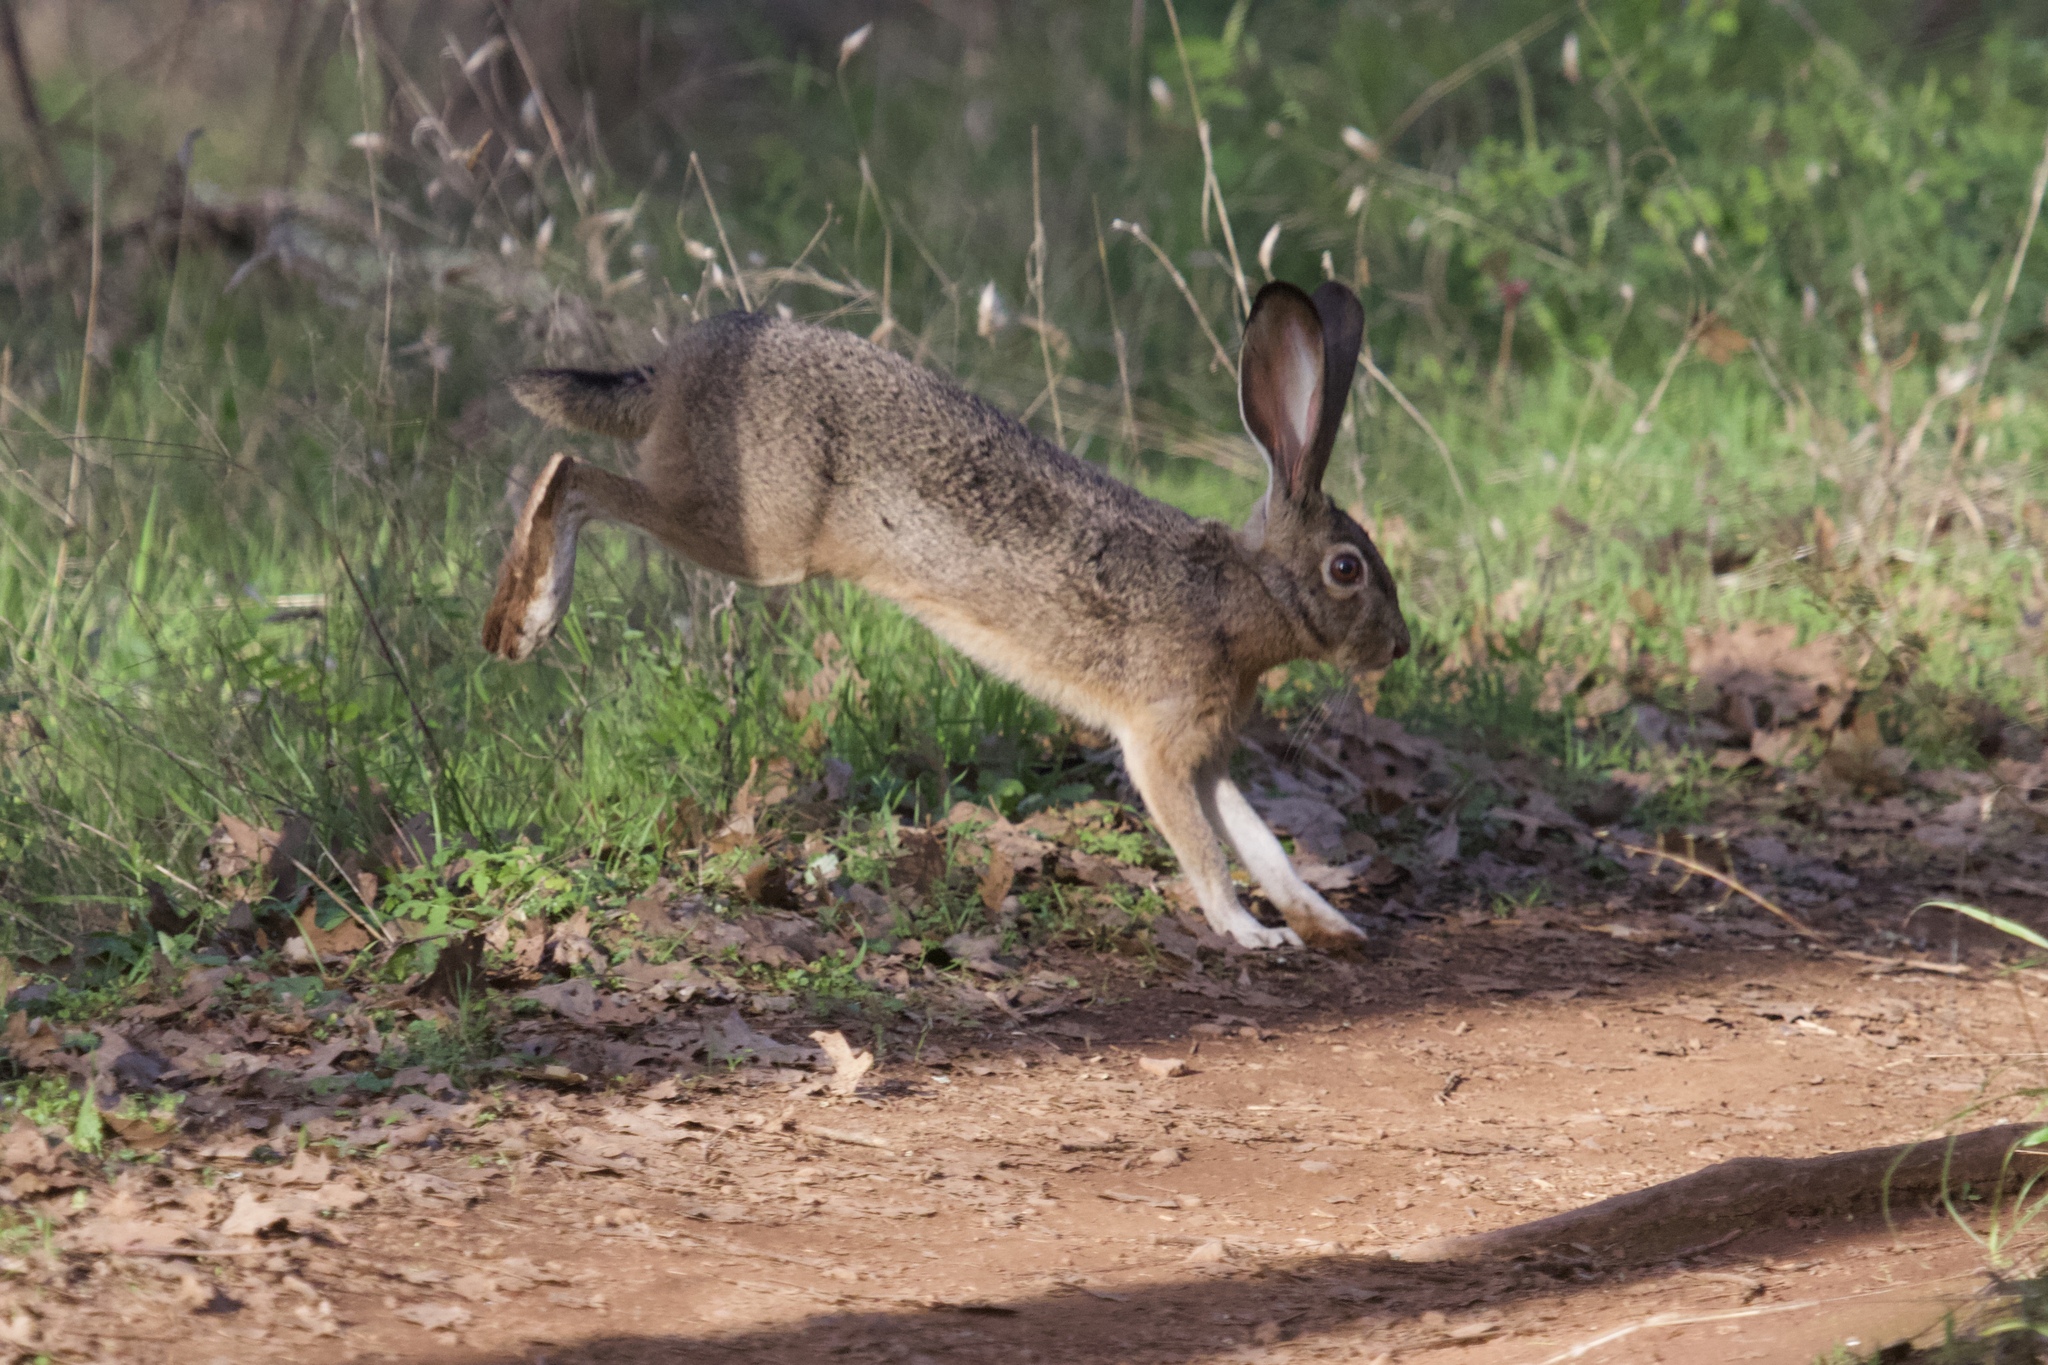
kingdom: Animalia
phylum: Chordata
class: Mammalia
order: Lagomorpha
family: Leporidae
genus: Lepus
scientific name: Lepus californicus
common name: Black-tailed jackrabbit
